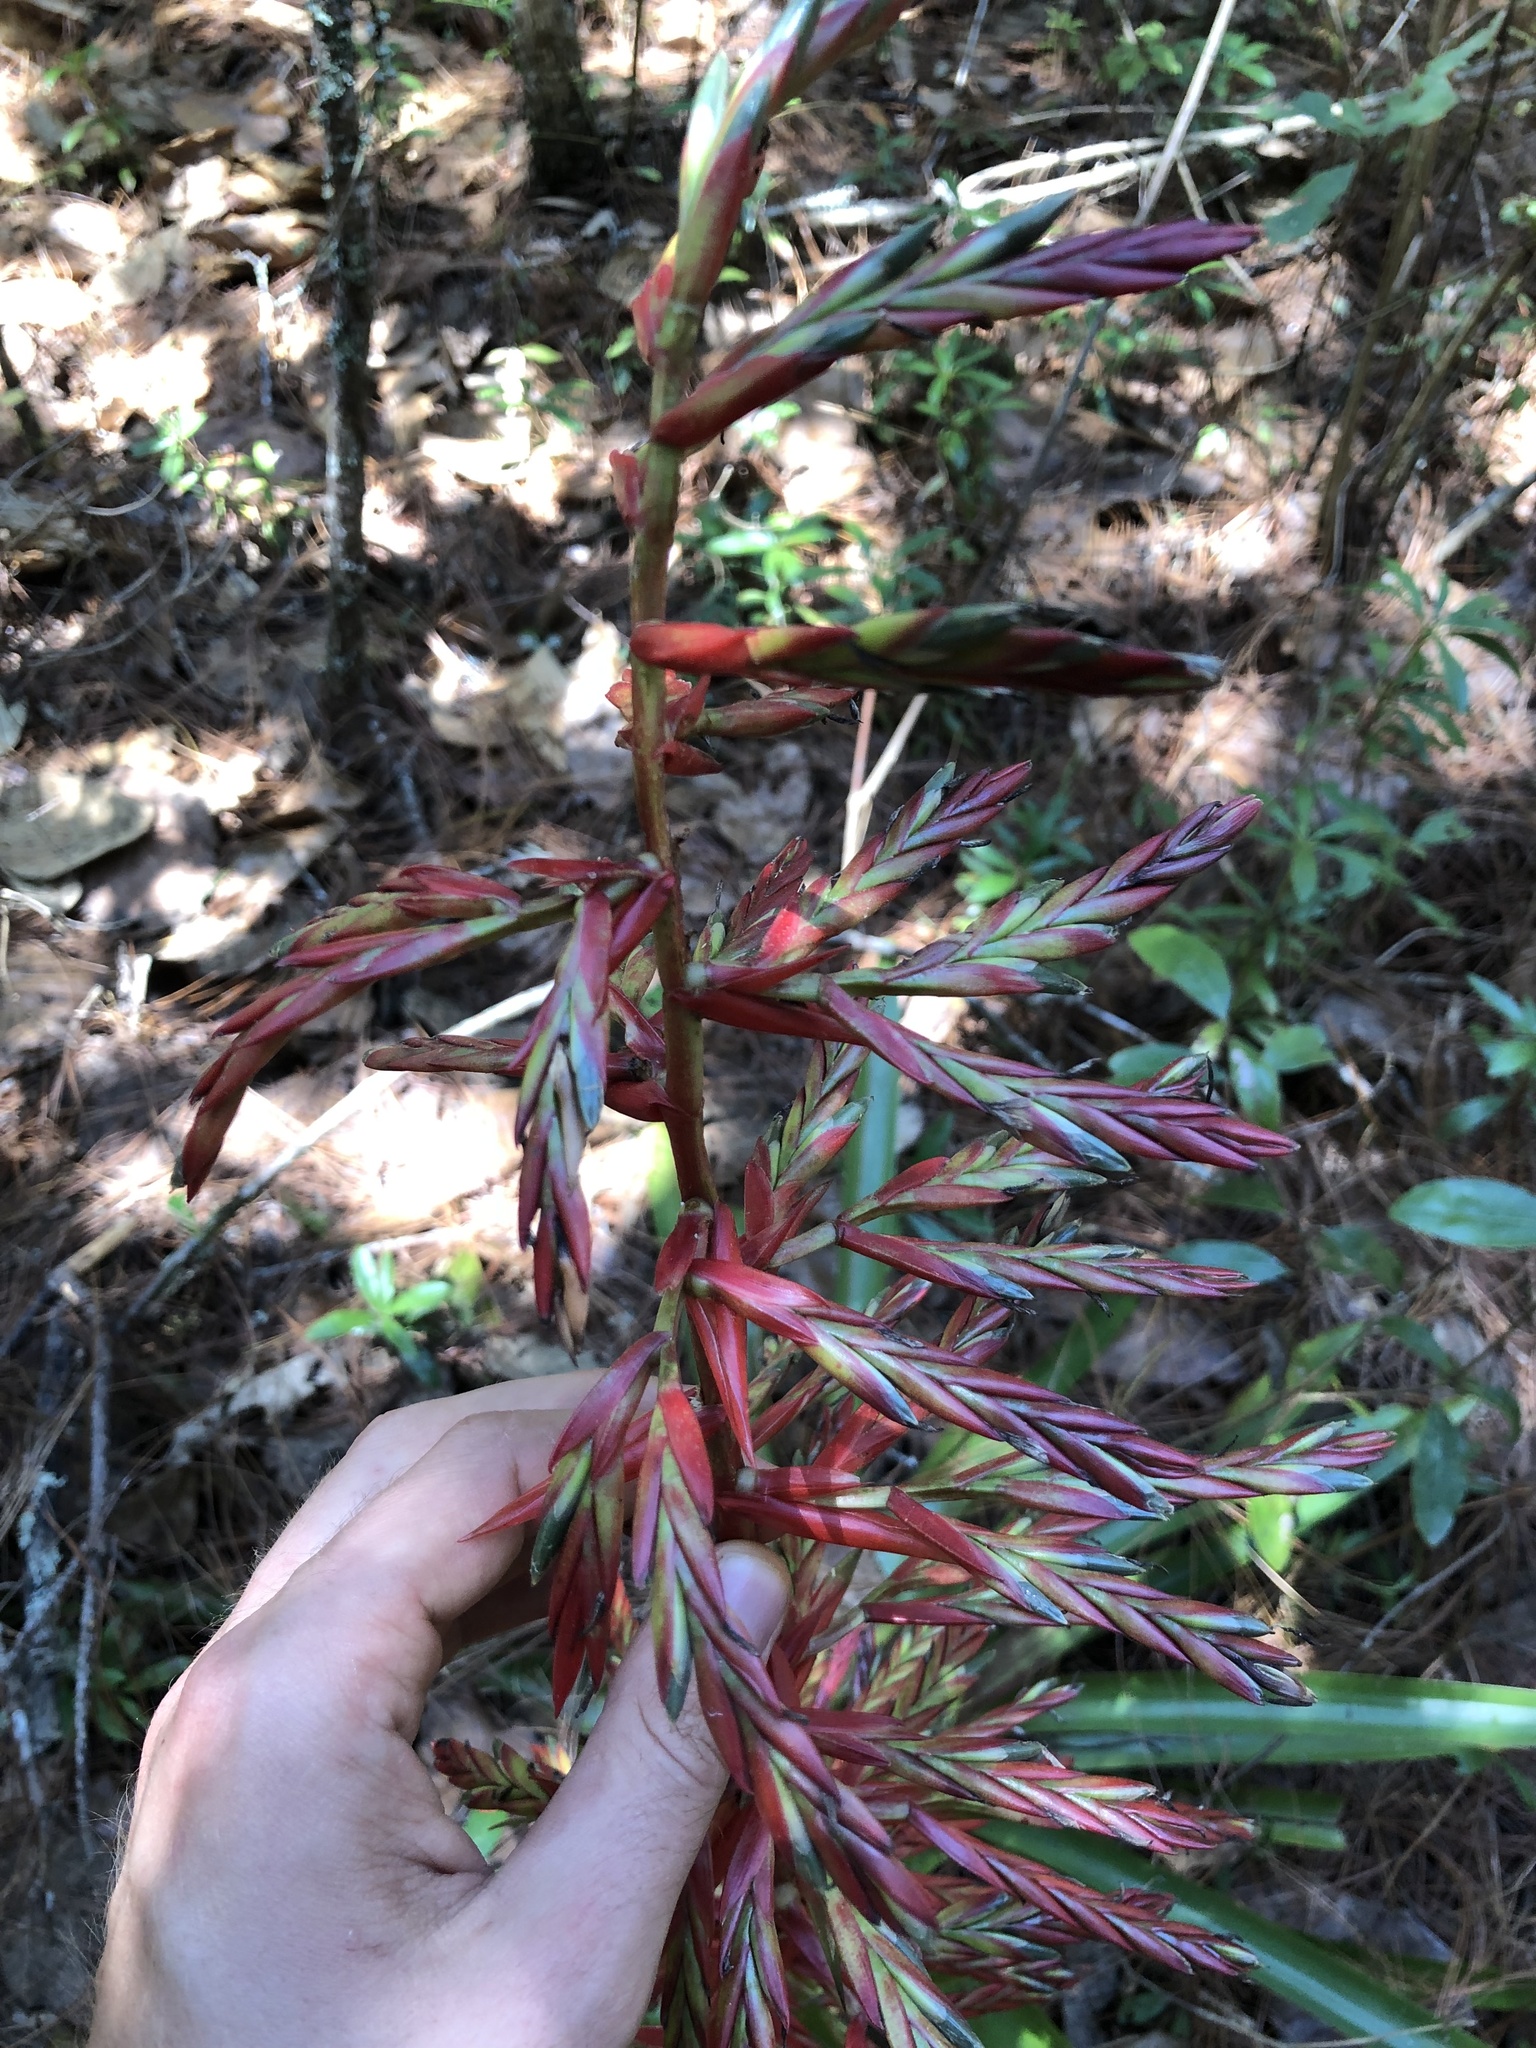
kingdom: Plantae
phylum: Tracheophyta
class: Liliopsida
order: Poales
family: Bromeliaceae
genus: Tillandsia
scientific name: Tillandsia guatemalensis
